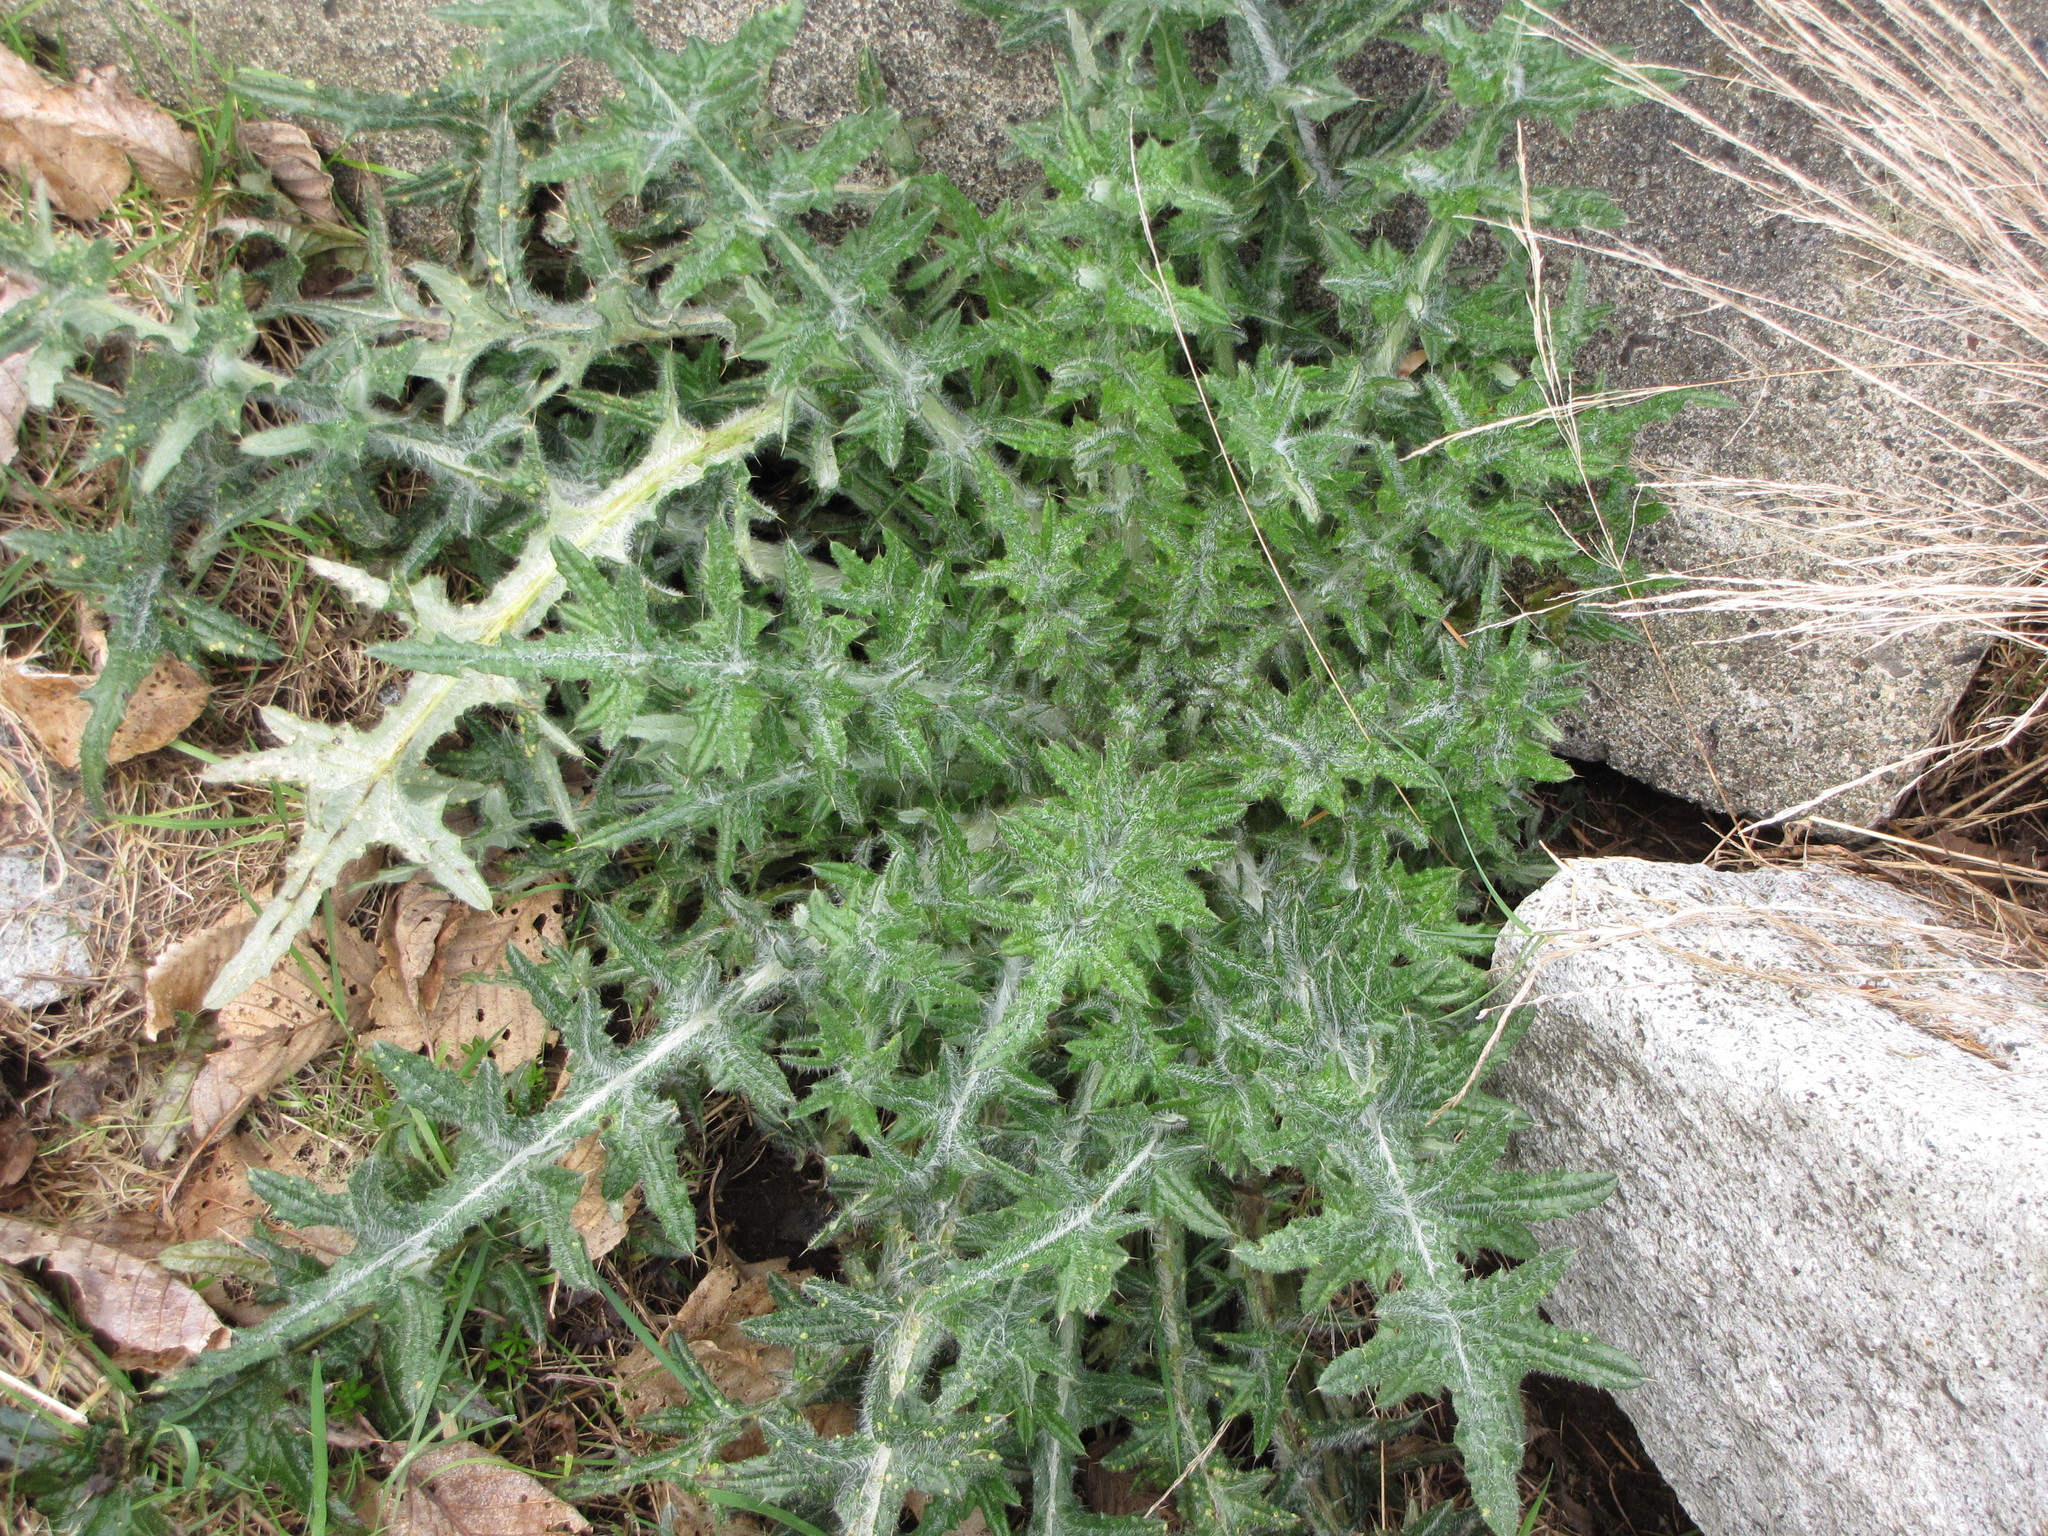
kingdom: Plantae
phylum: Tracheophyta
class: Magnoliopsida
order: Asterales
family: Asteraceae
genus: Cirsium
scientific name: Cirsium vulgare
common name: Bull thistle
